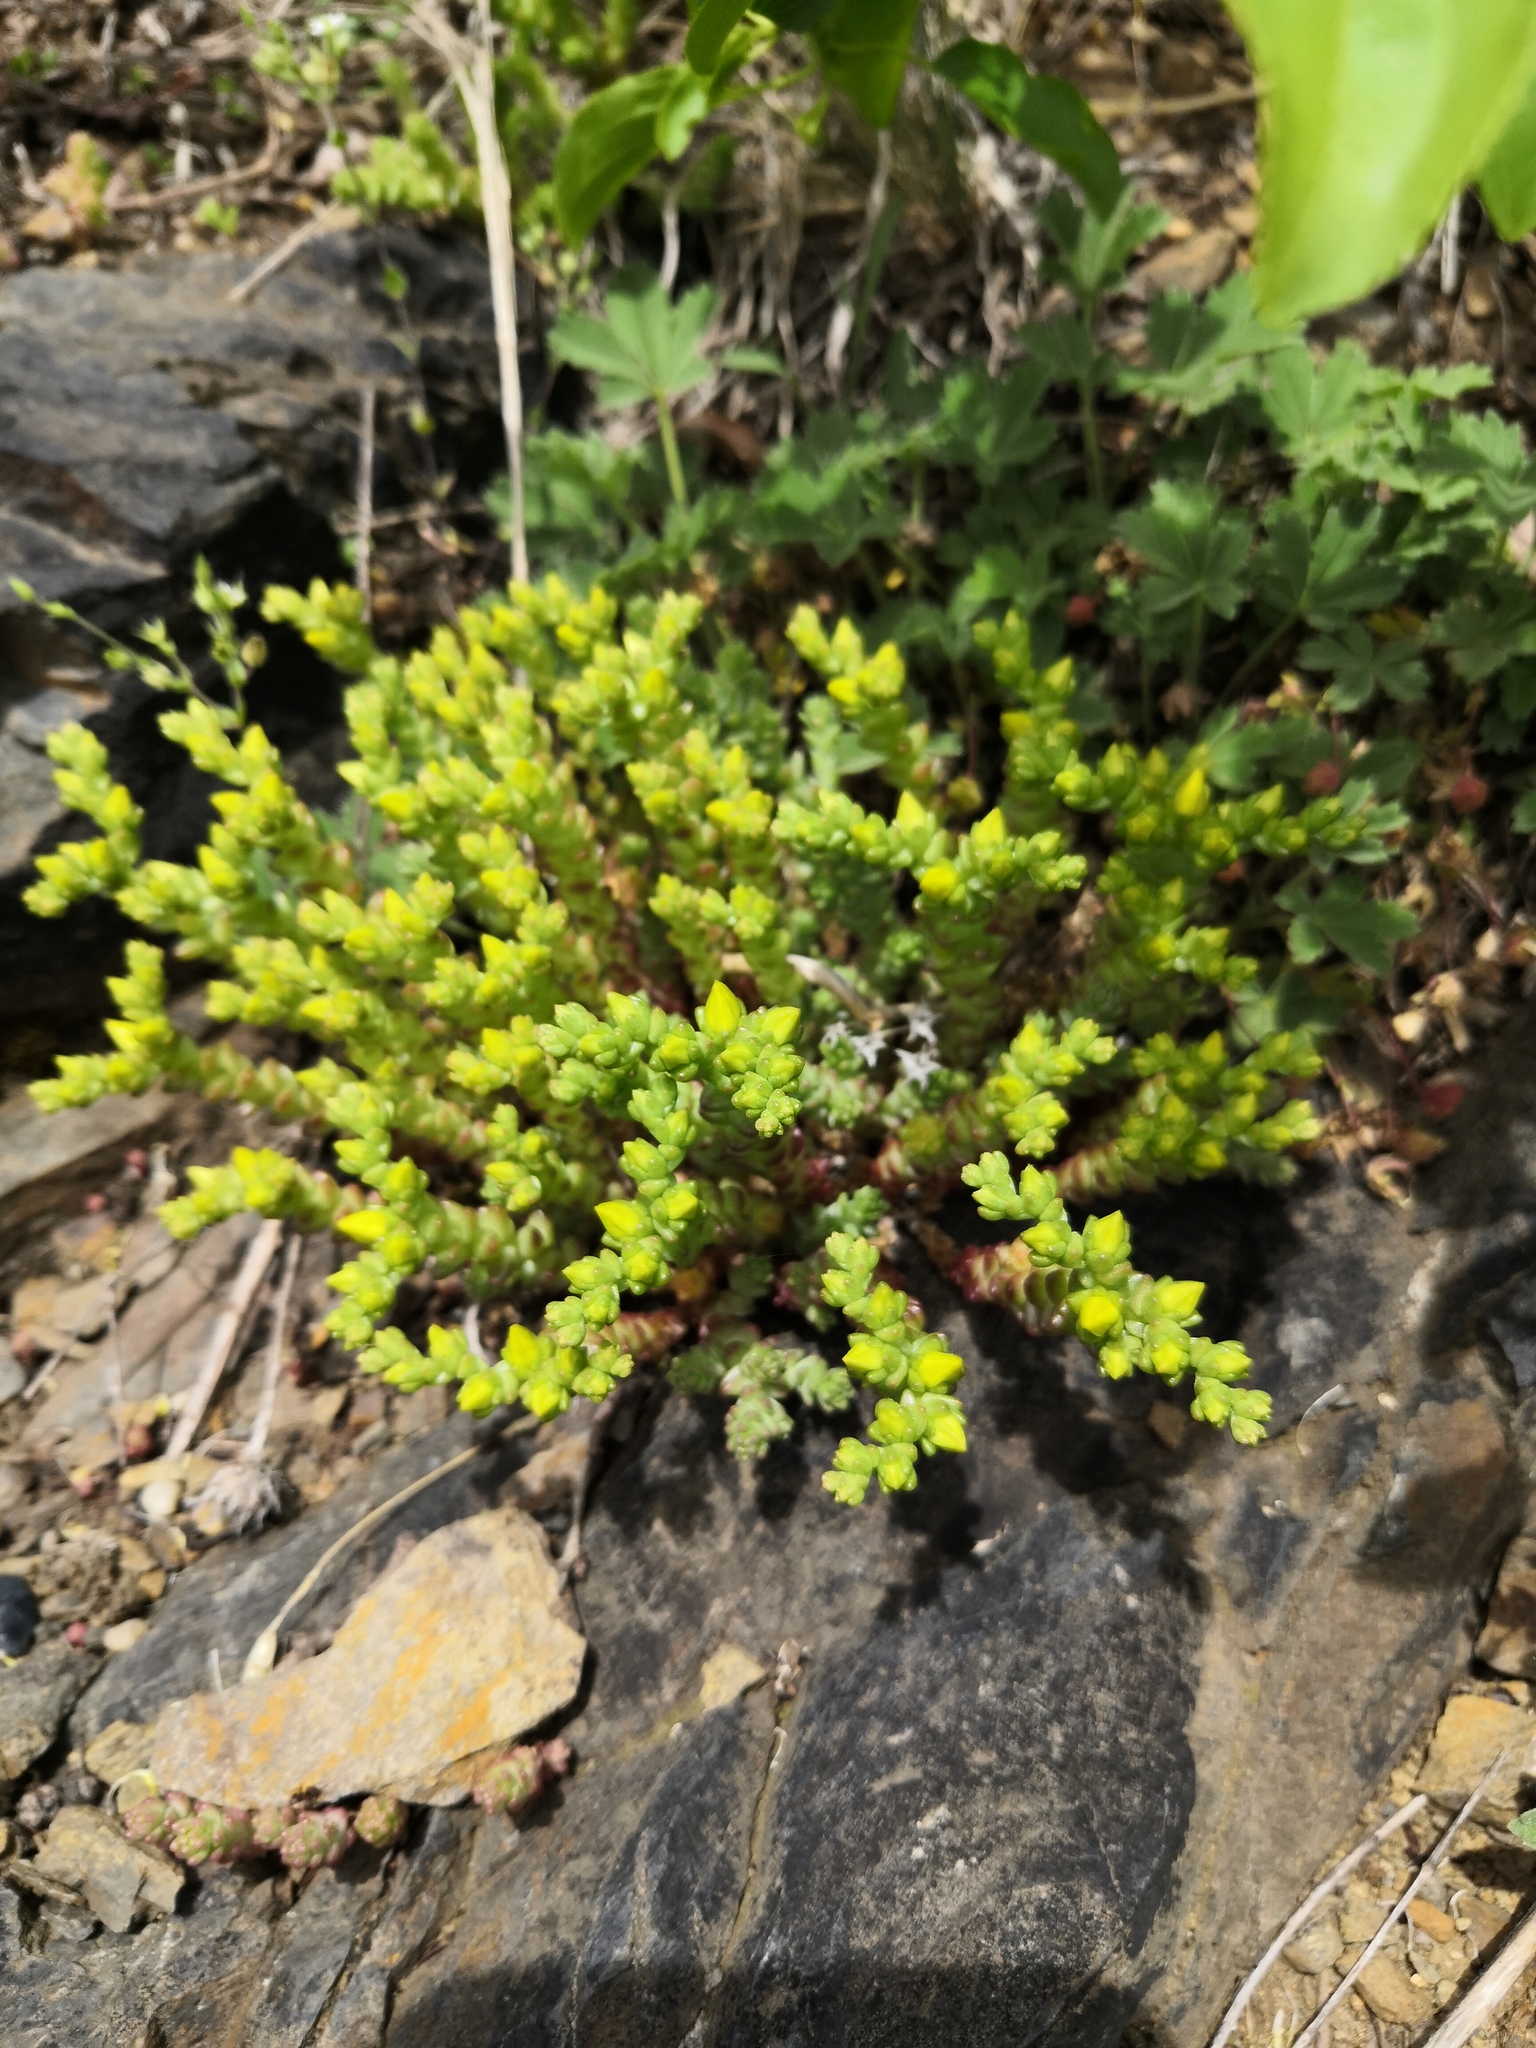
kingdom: Plantae
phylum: Tracheophyta
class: Magnoliopsida
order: Saxifragales
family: Crassulaceae
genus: Sedum
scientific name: Sedum acre
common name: Biting stonecrop
